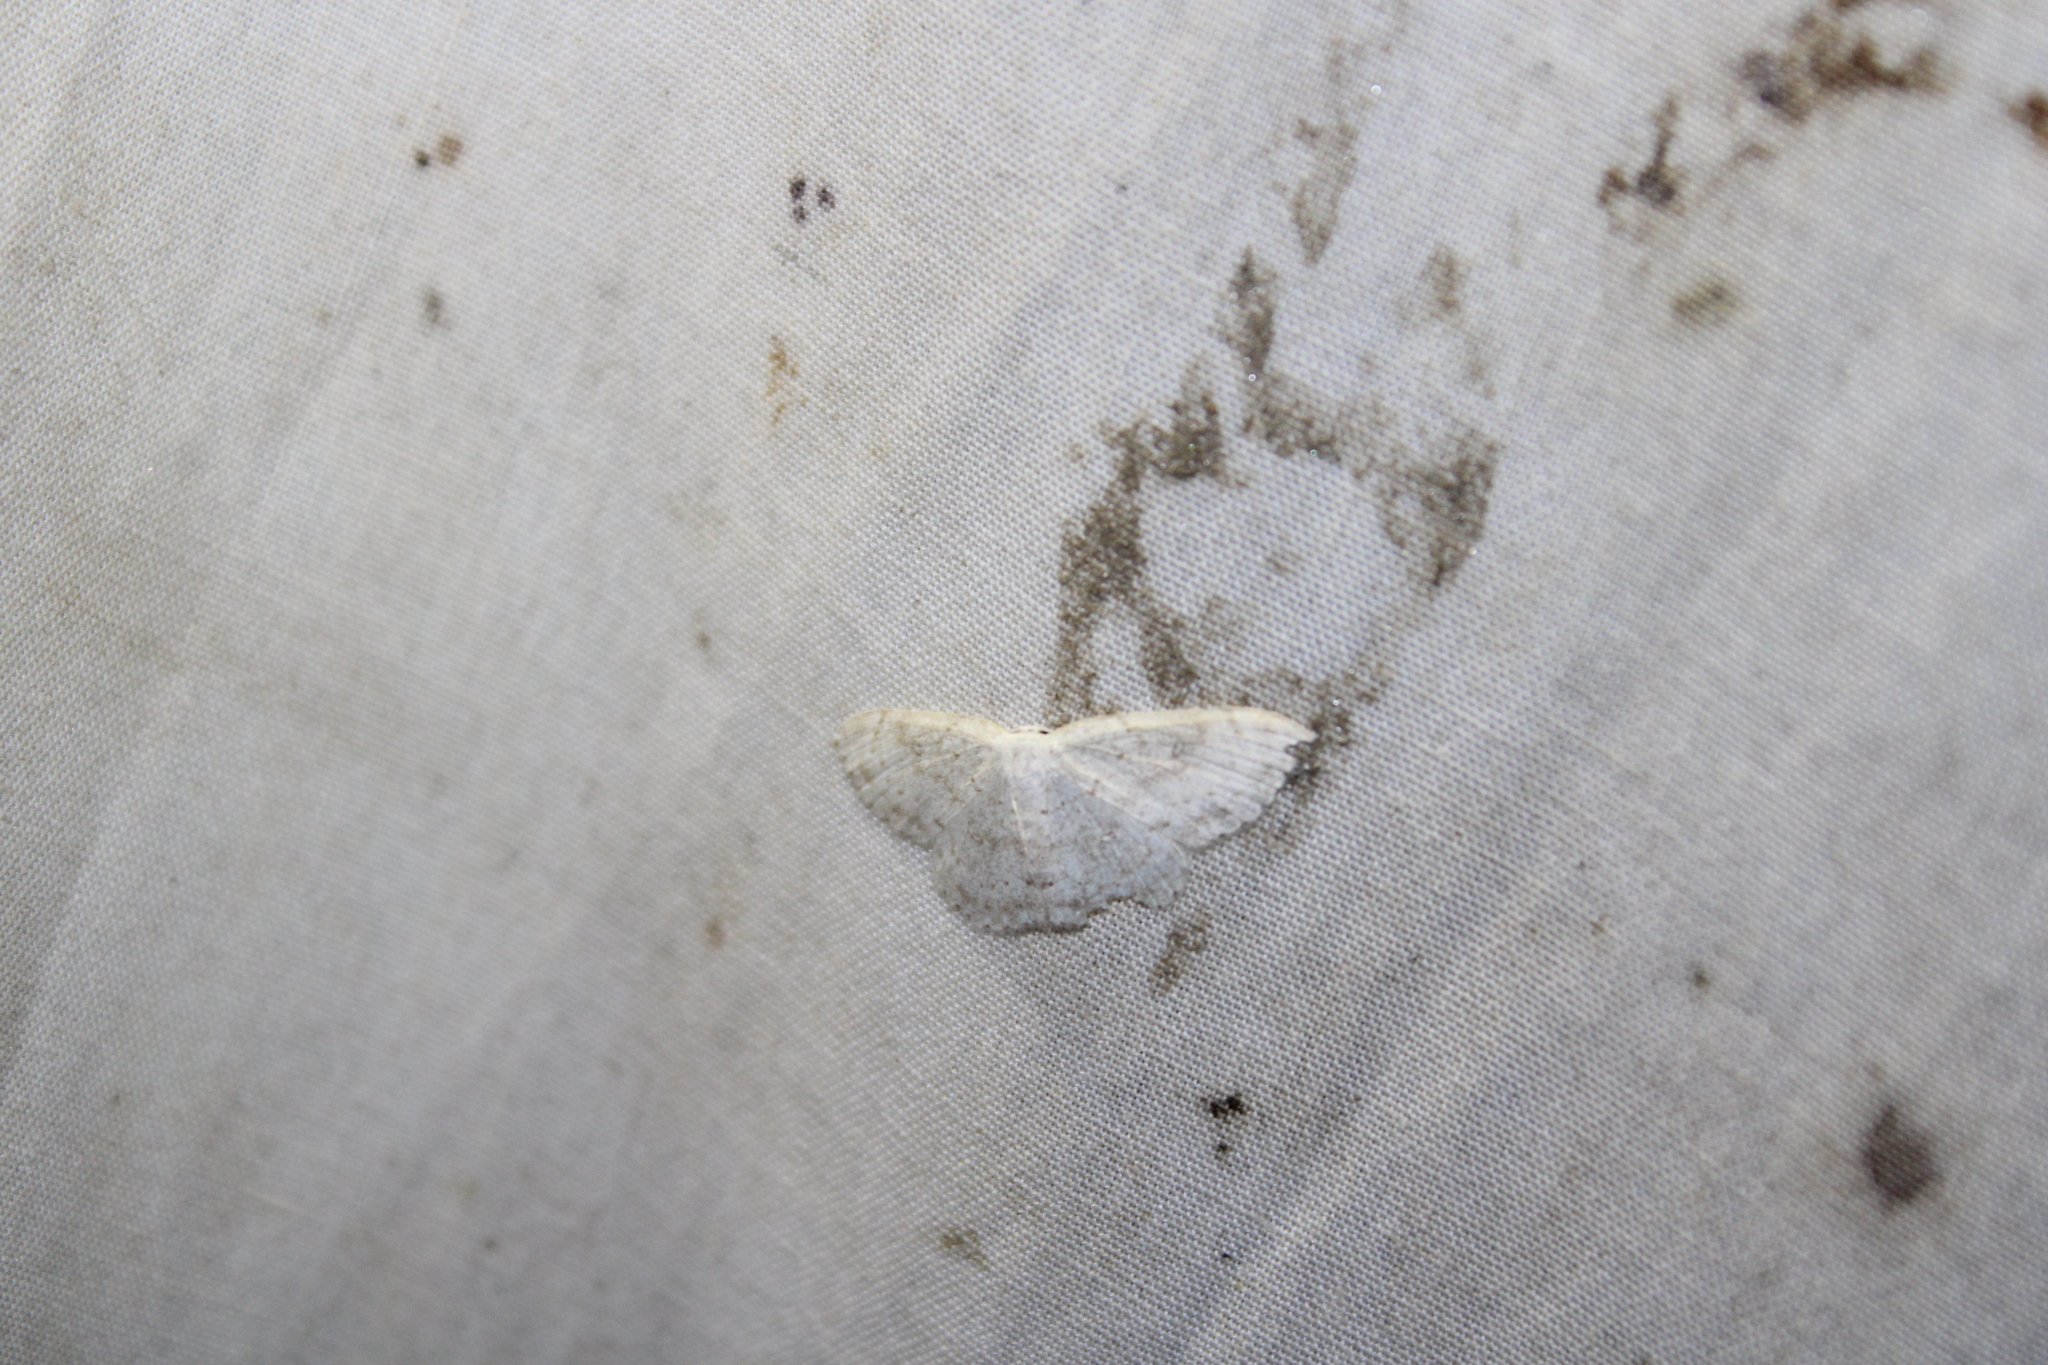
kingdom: Animalia
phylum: Arthropoda
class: Insecta
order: Lepidoptera
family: Geometridae
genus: Cyclophora
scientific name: Cyclophora pendulinaria
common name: Sweet fern geometer
